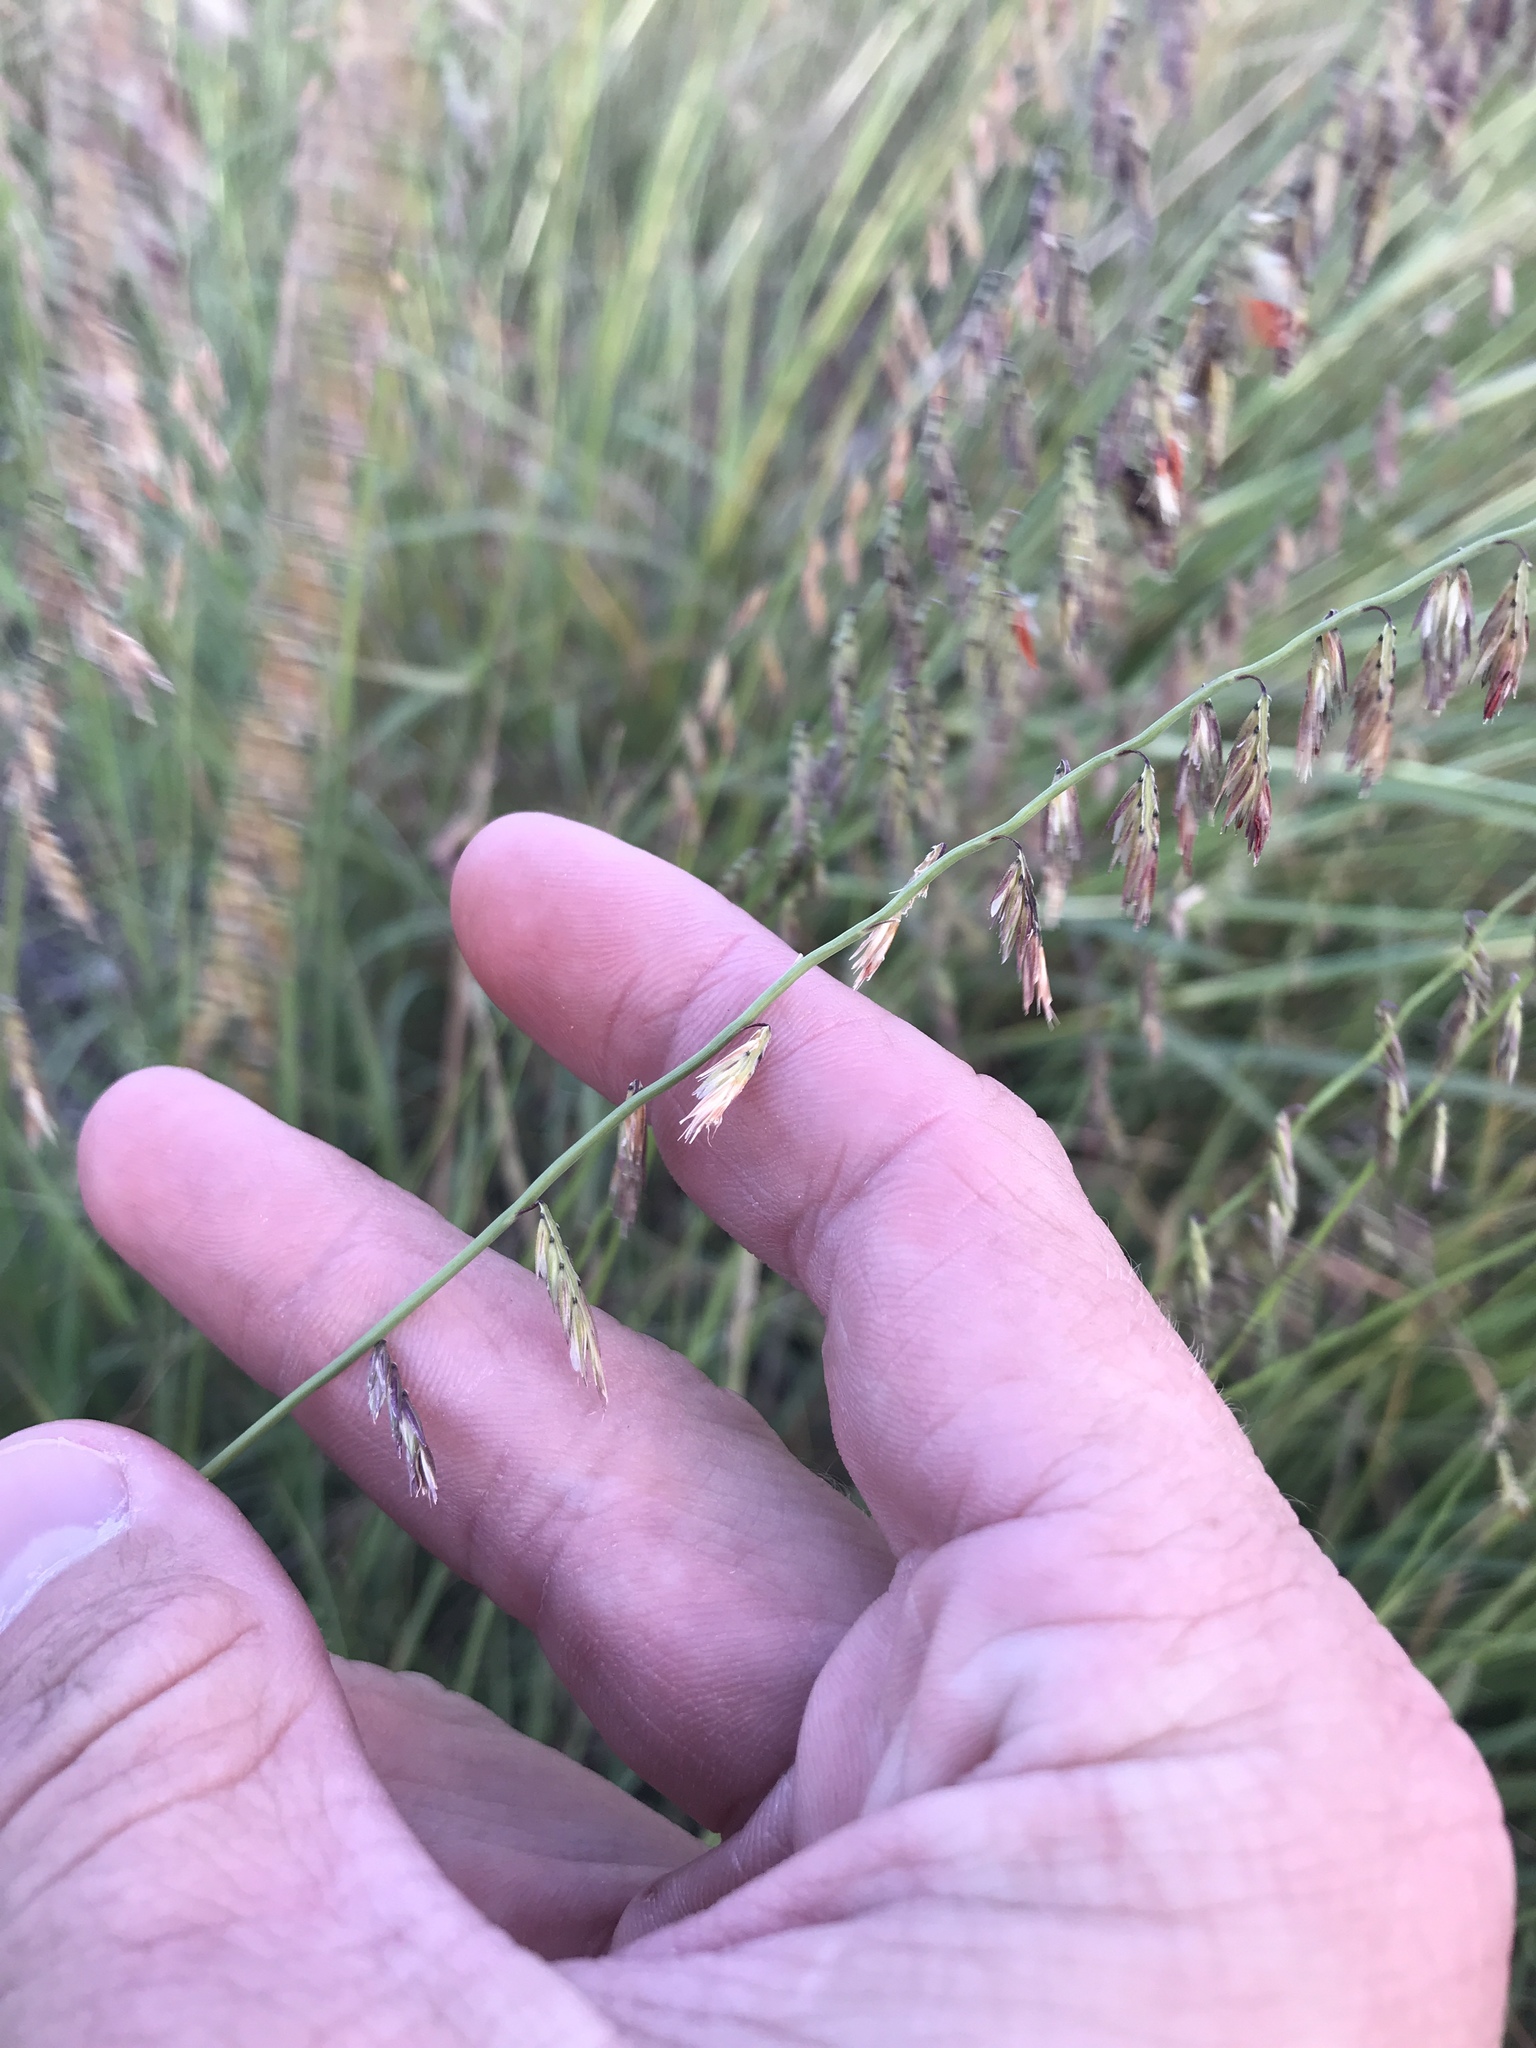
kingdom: Plantae
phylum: Tracheophyta
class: Liliopsida
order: Poales
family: Poaceae
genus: Bouteloua
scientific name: Bouteloua curtipendula
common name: Side-oats grama
